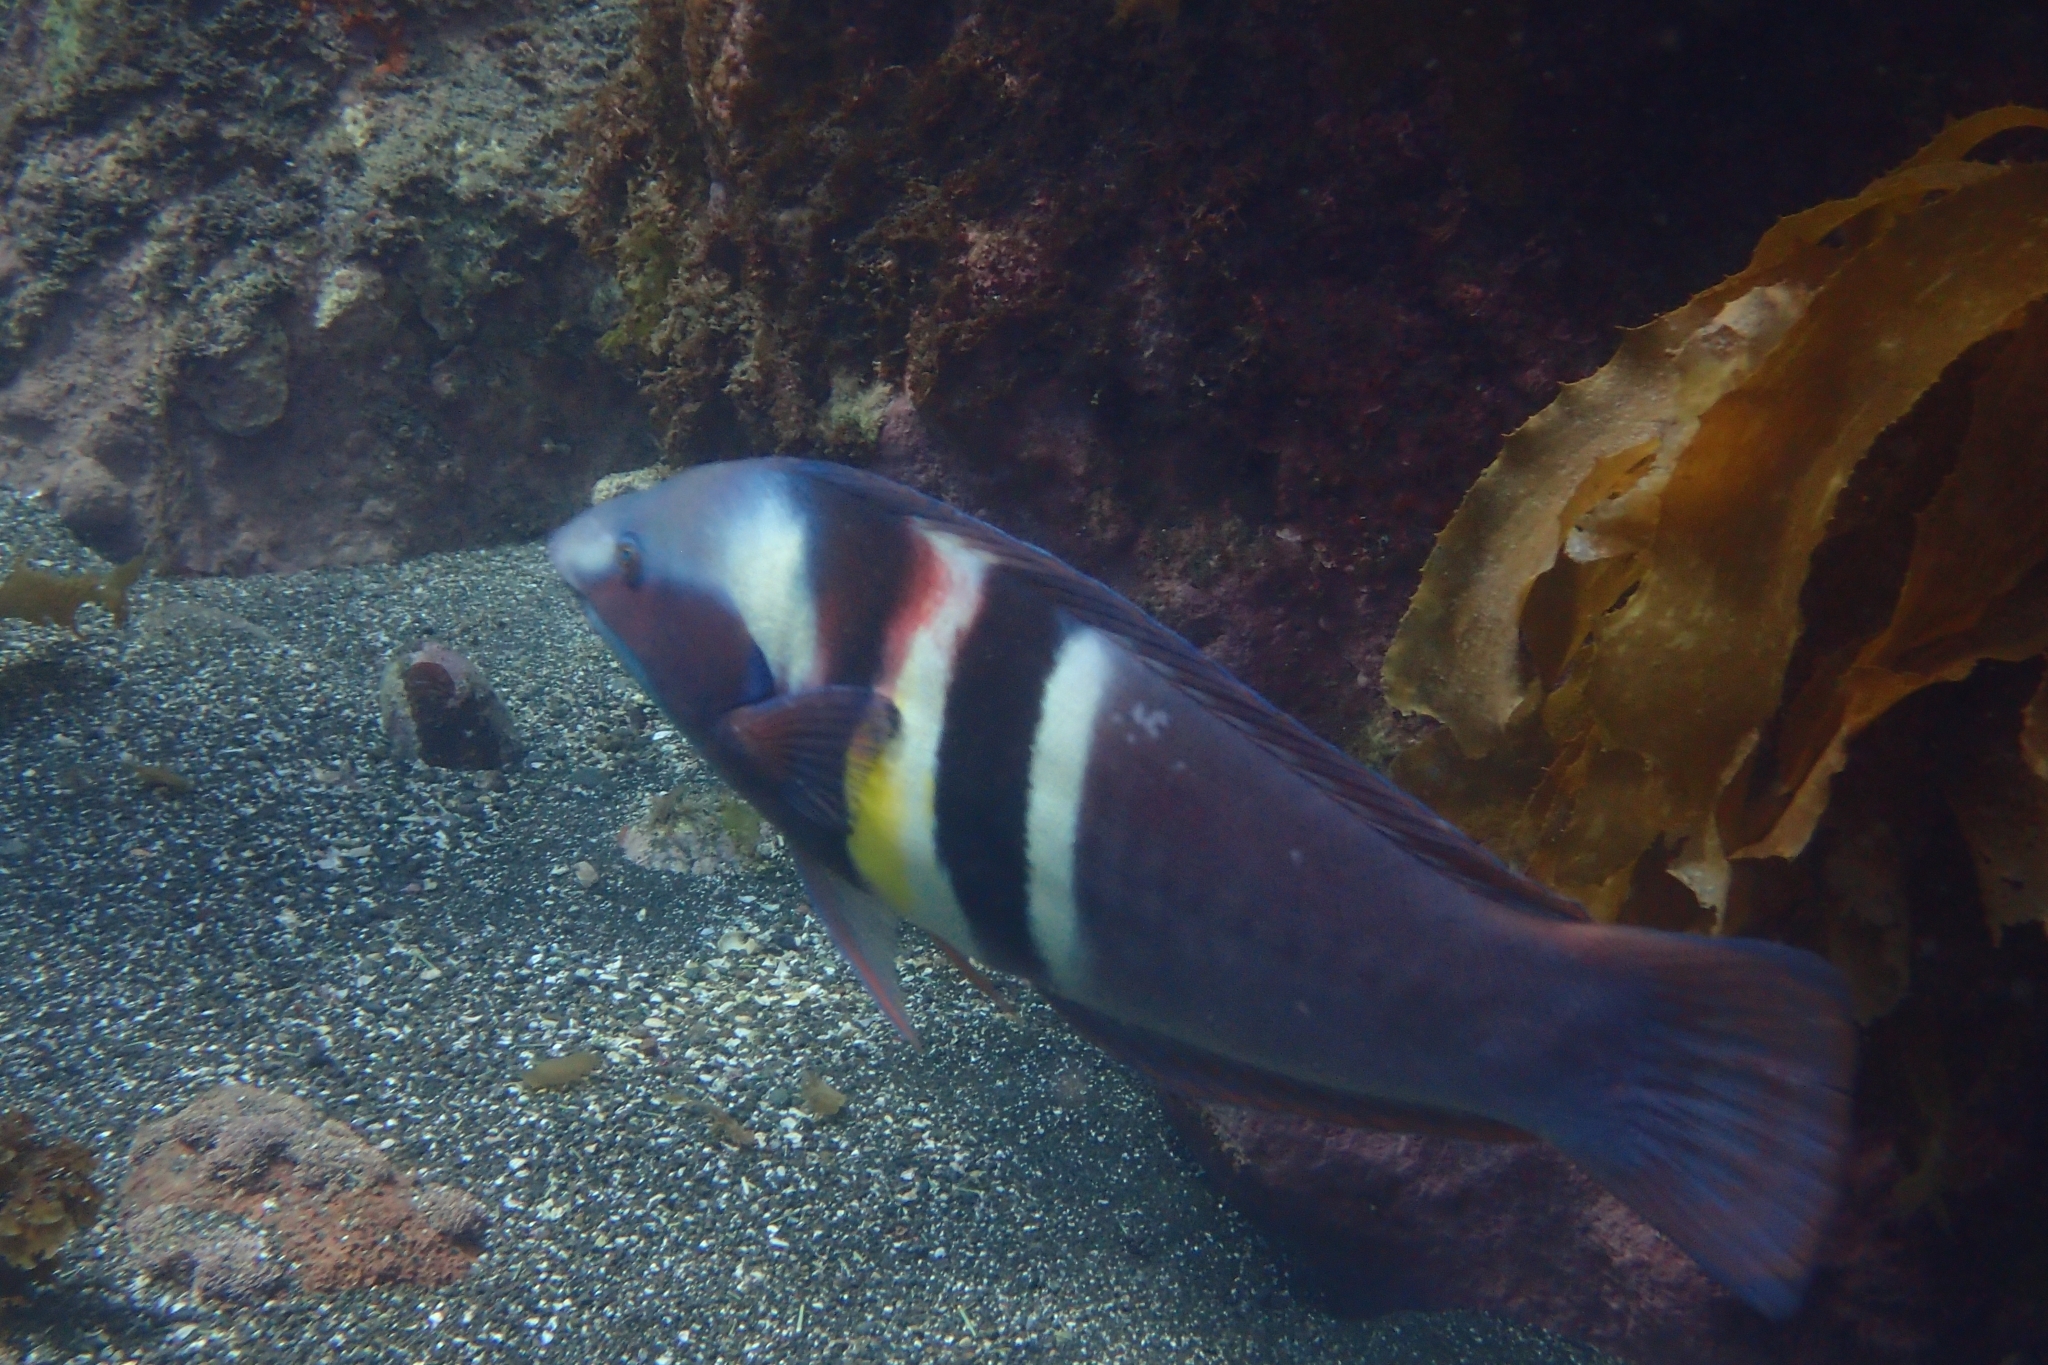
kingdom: Animalia
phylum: Chordata
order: Perciformes
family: Labridae
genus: Coris
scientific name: Coris sandeyeri
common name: Sandager's wrasse
